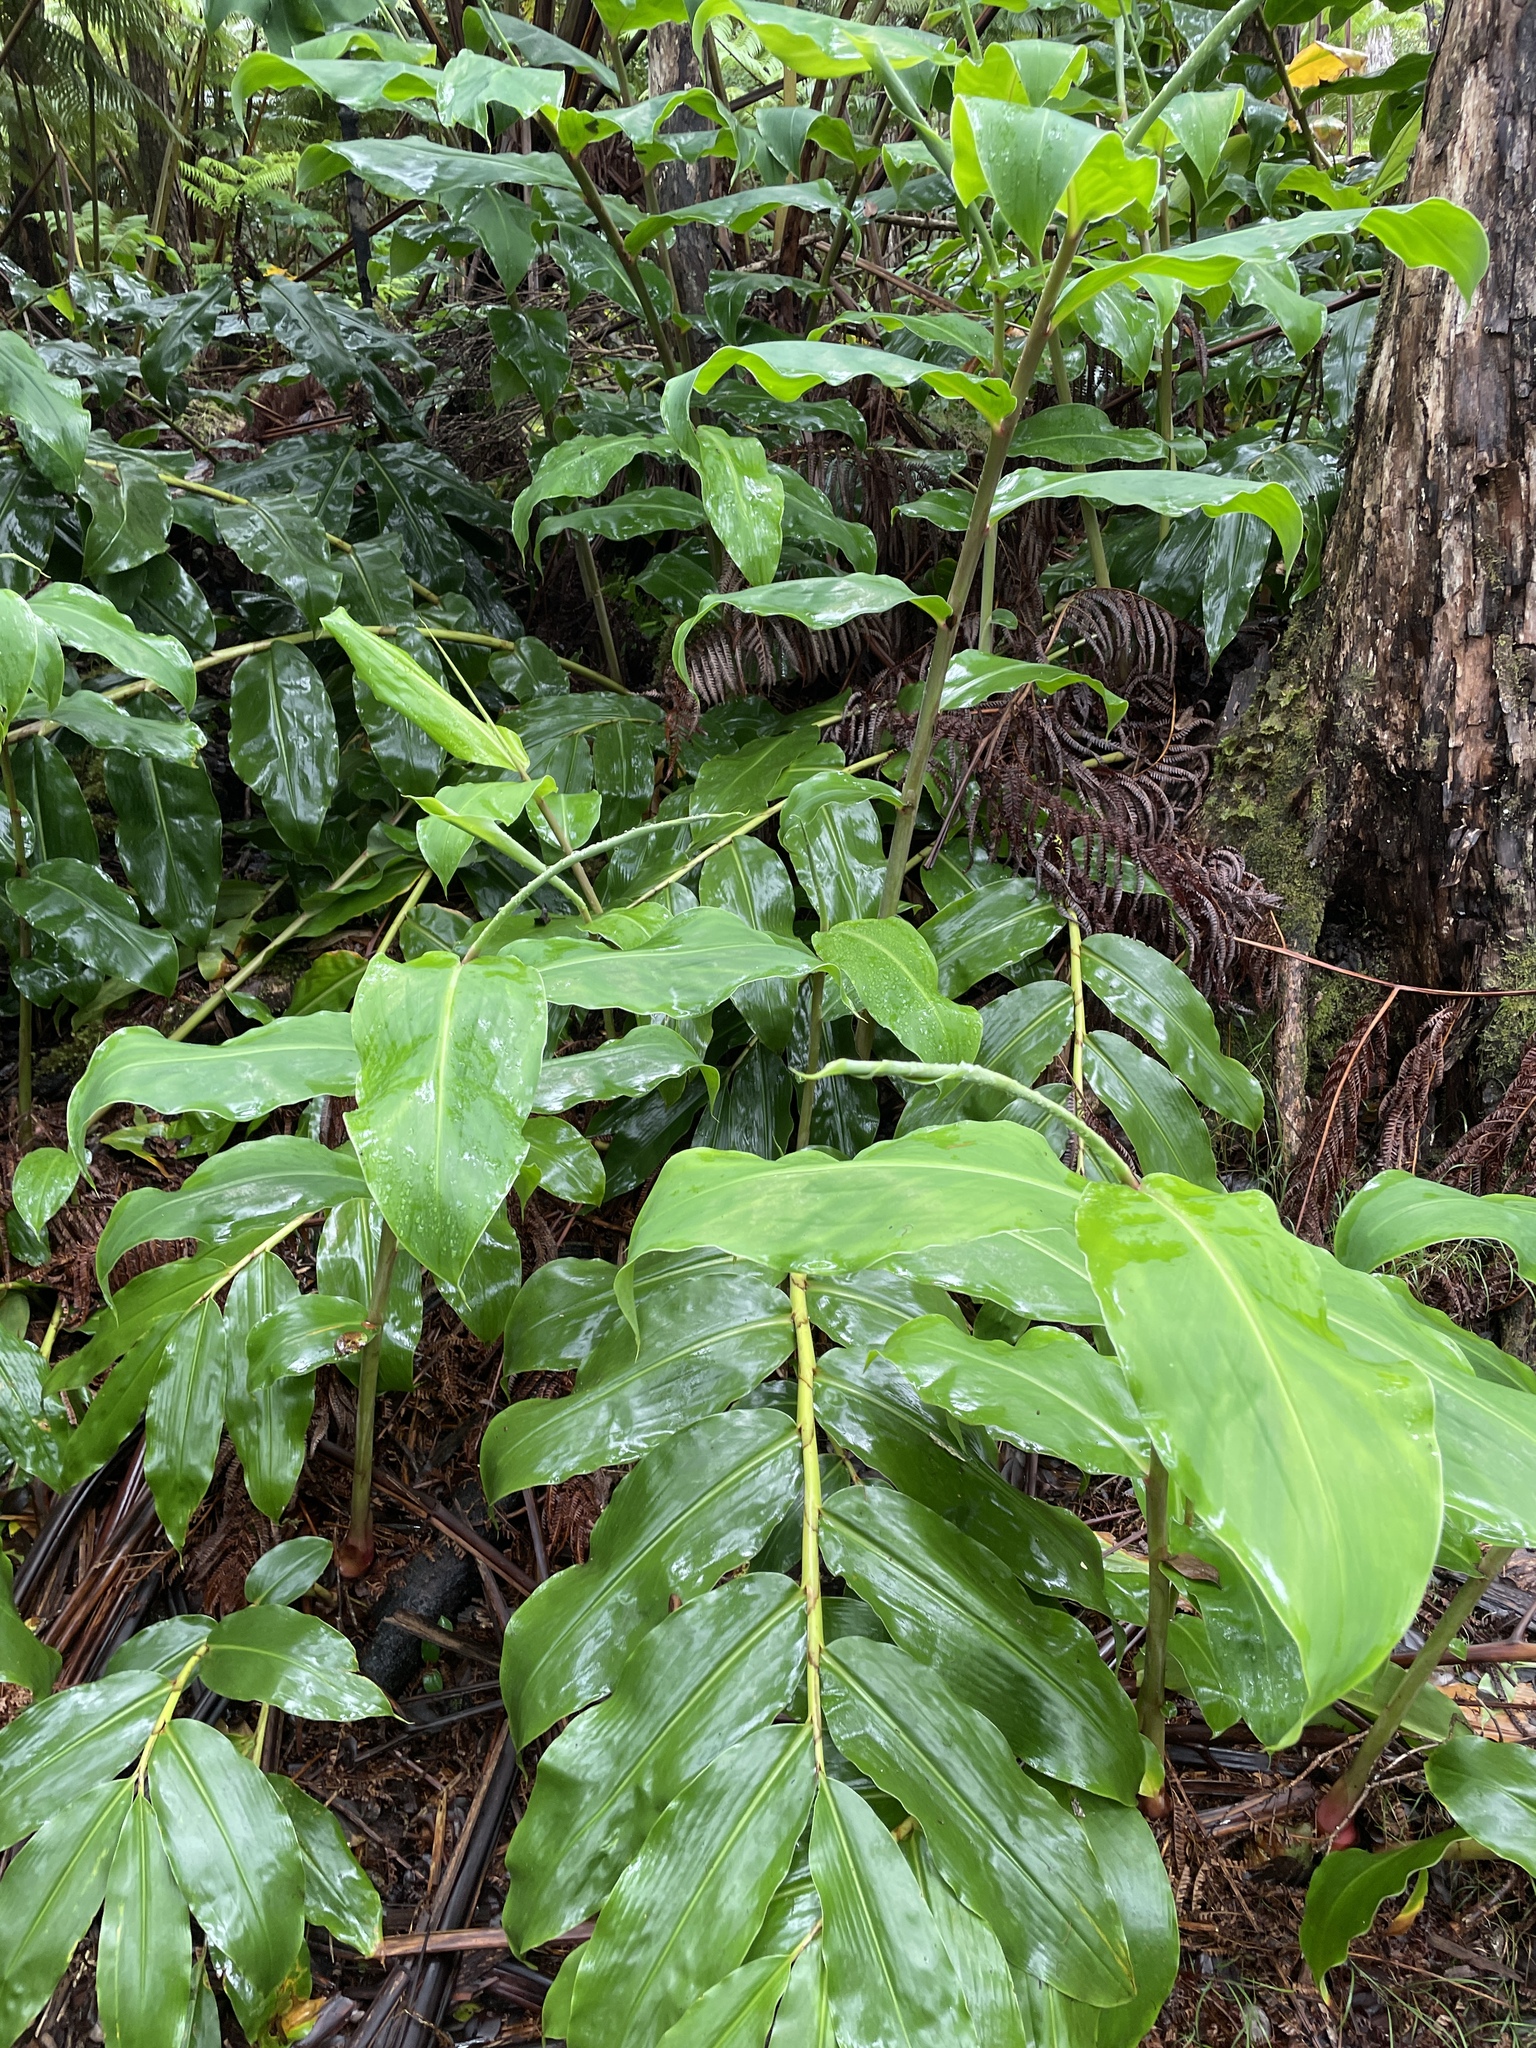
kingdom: Plantae
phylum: Tracheophyta
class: Liliopsida
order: Zingiberales
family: Zingiberaceae
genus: Hedychium
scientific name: Hedychium gardnerianum
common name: Himalayan ginger
